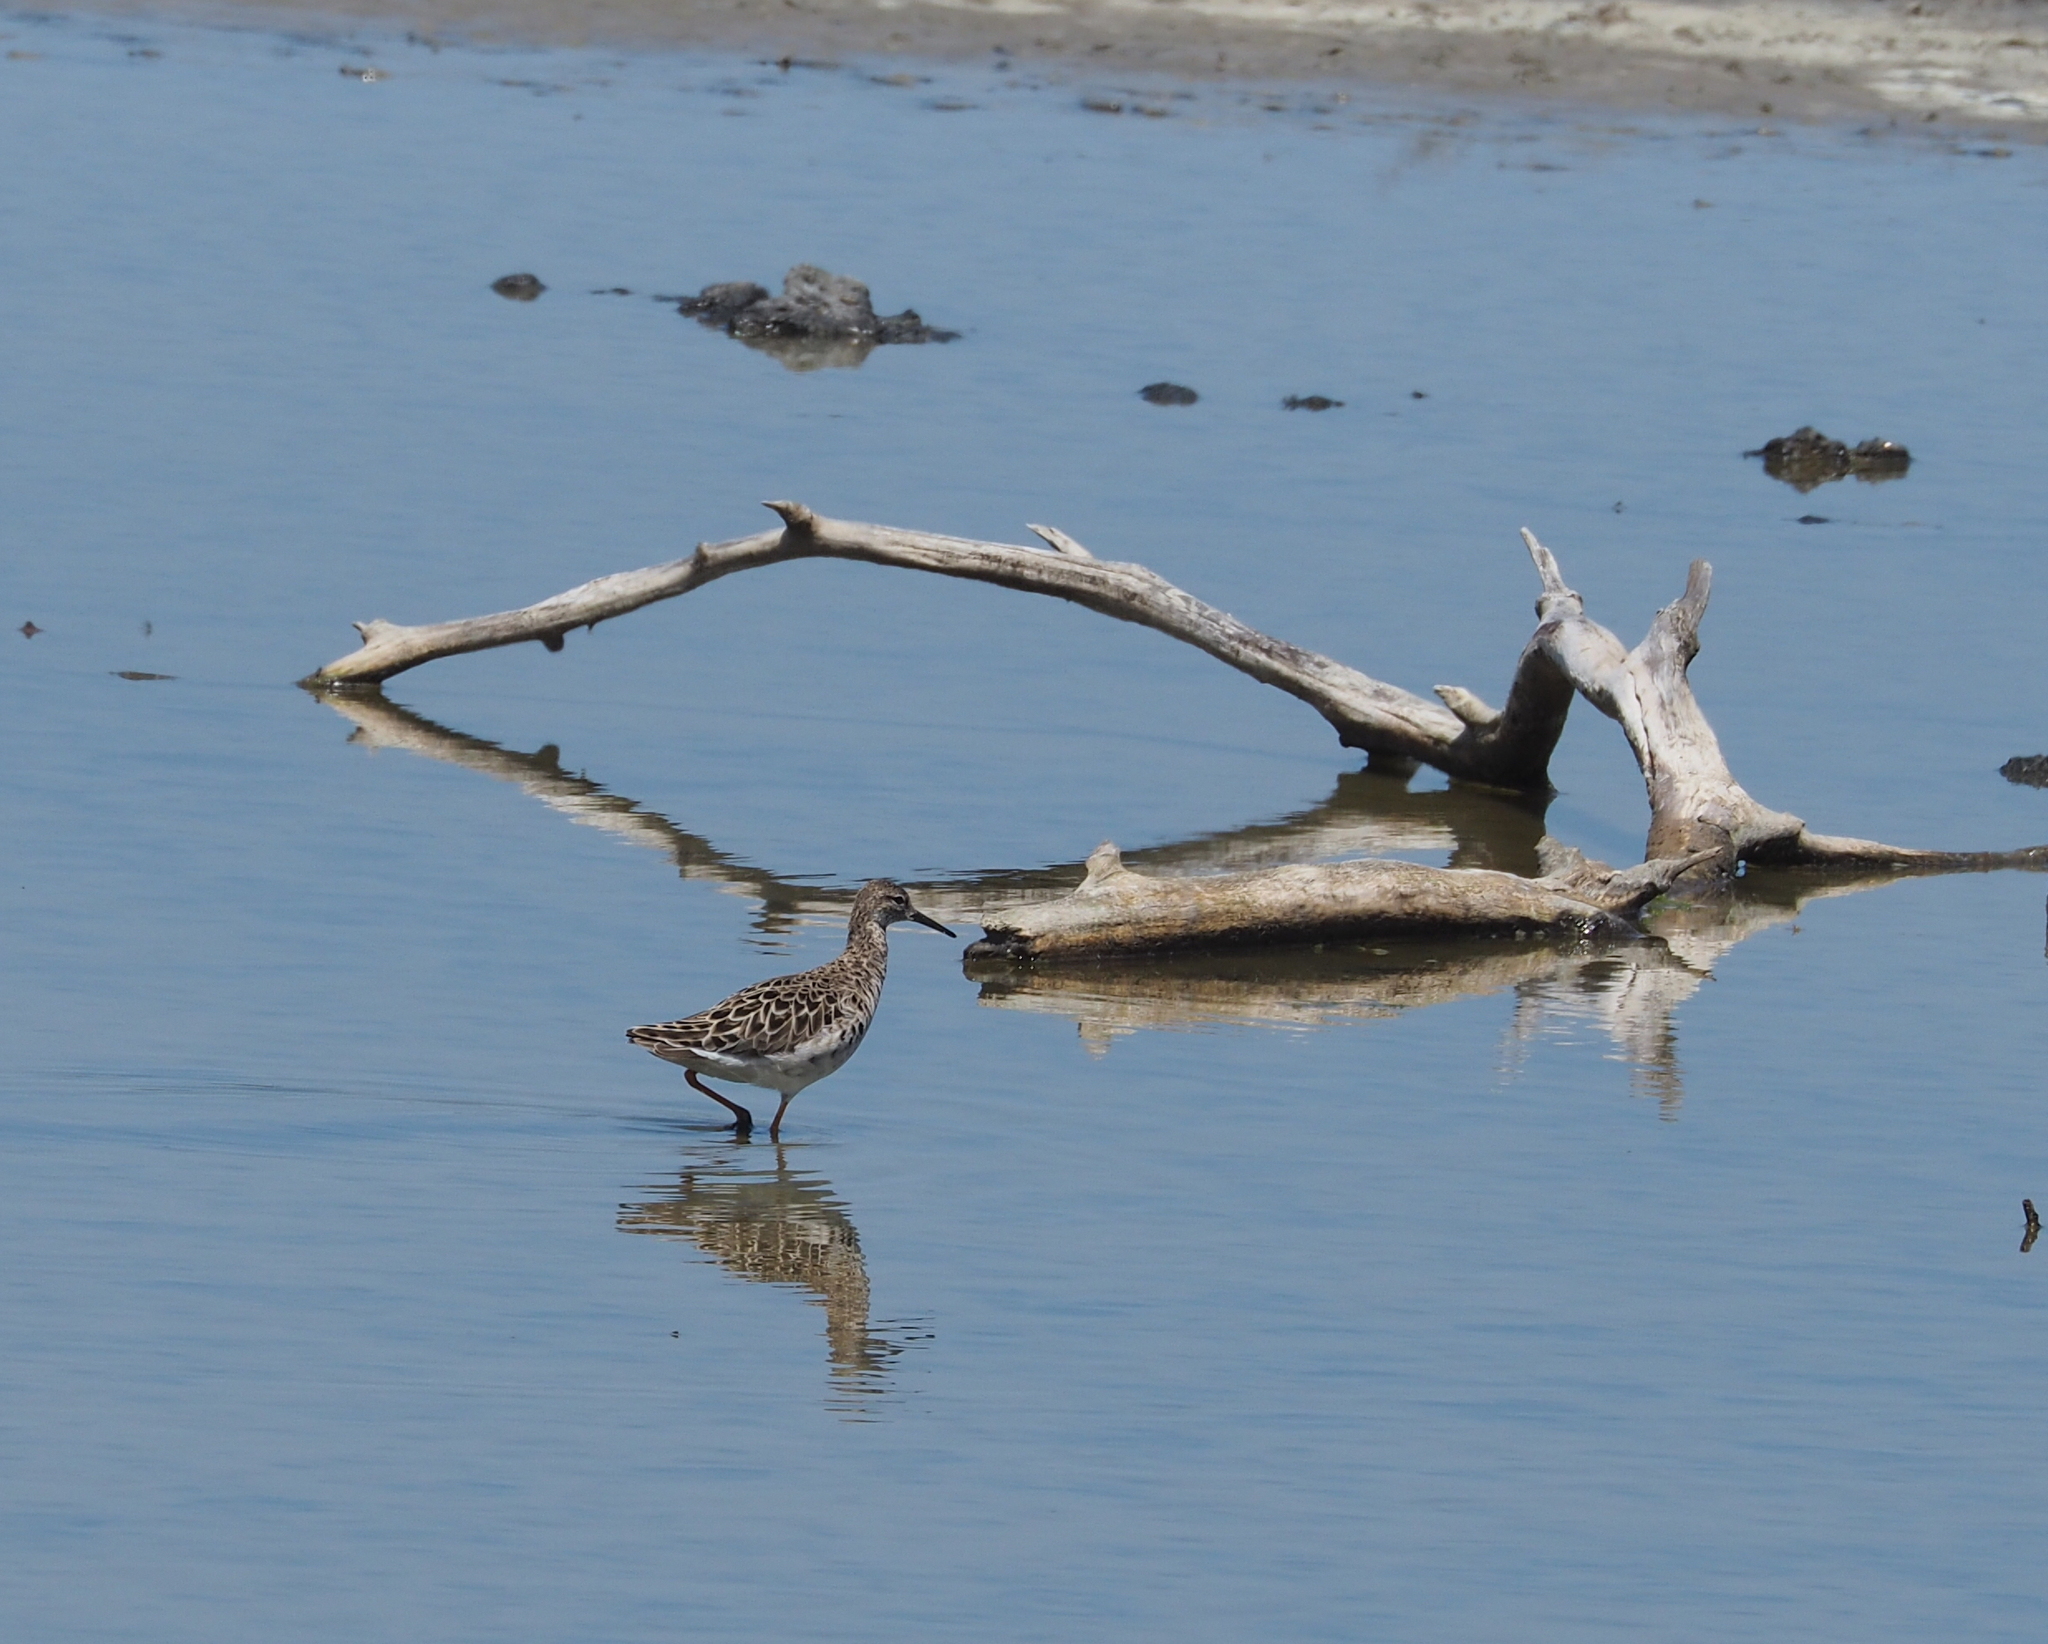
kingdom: Animalia
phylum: Chordata
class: Aves
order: Charadriiformes
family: Scolopacidae
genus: Calidris
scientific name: Calidris pugnax
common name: Ruff
